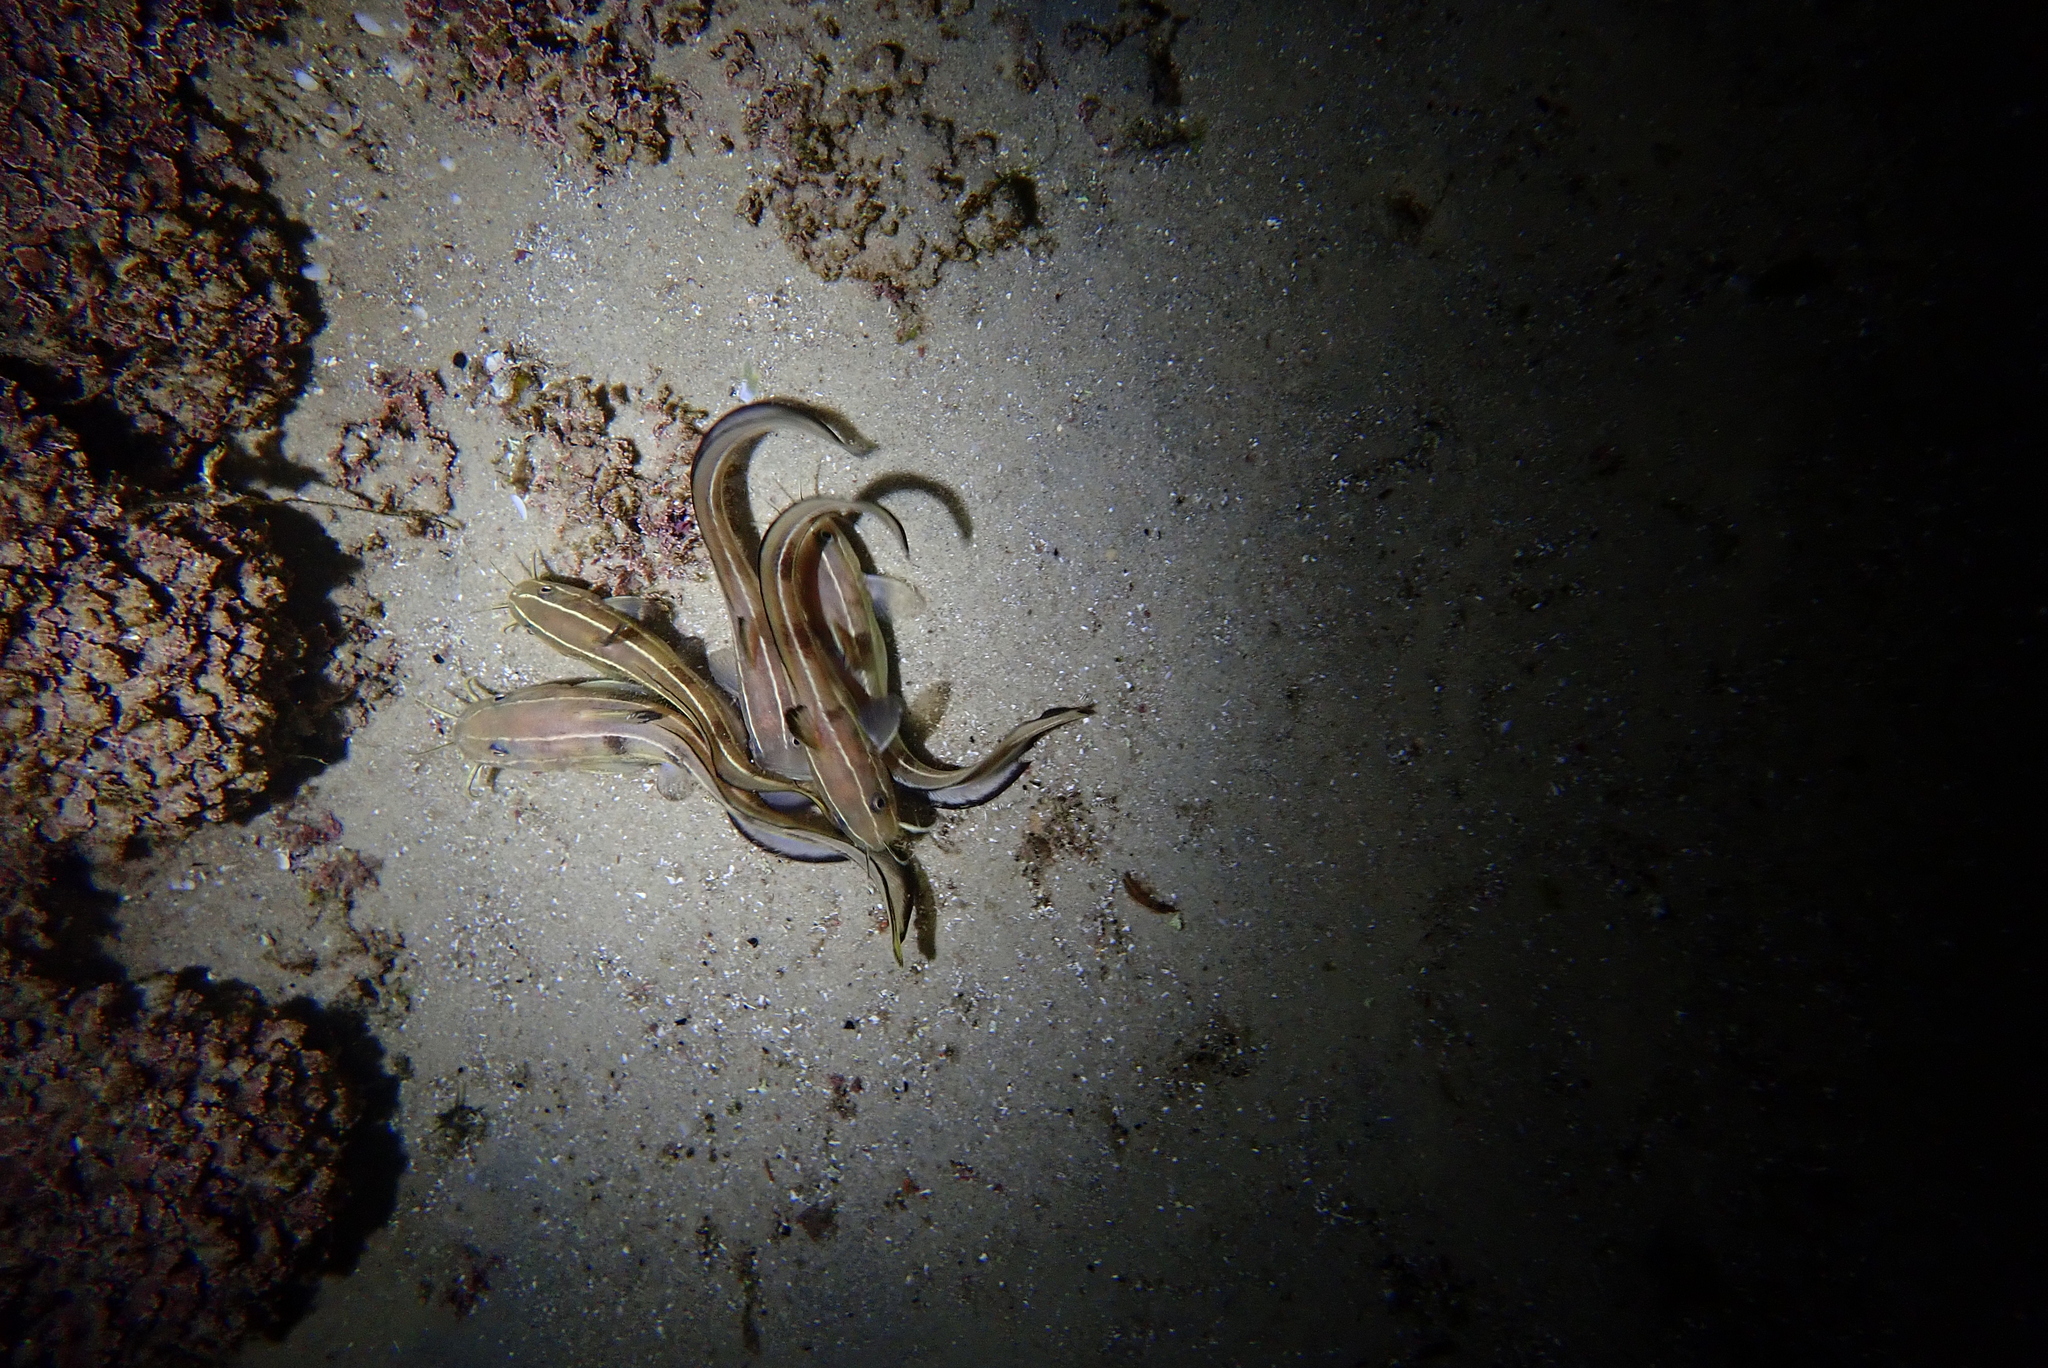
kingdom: Animalia
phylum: Chordata
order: Siluriformes
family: Plotosidae
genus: Plotosus
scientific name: Plotosus lineatus
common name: Striped eel catfish
